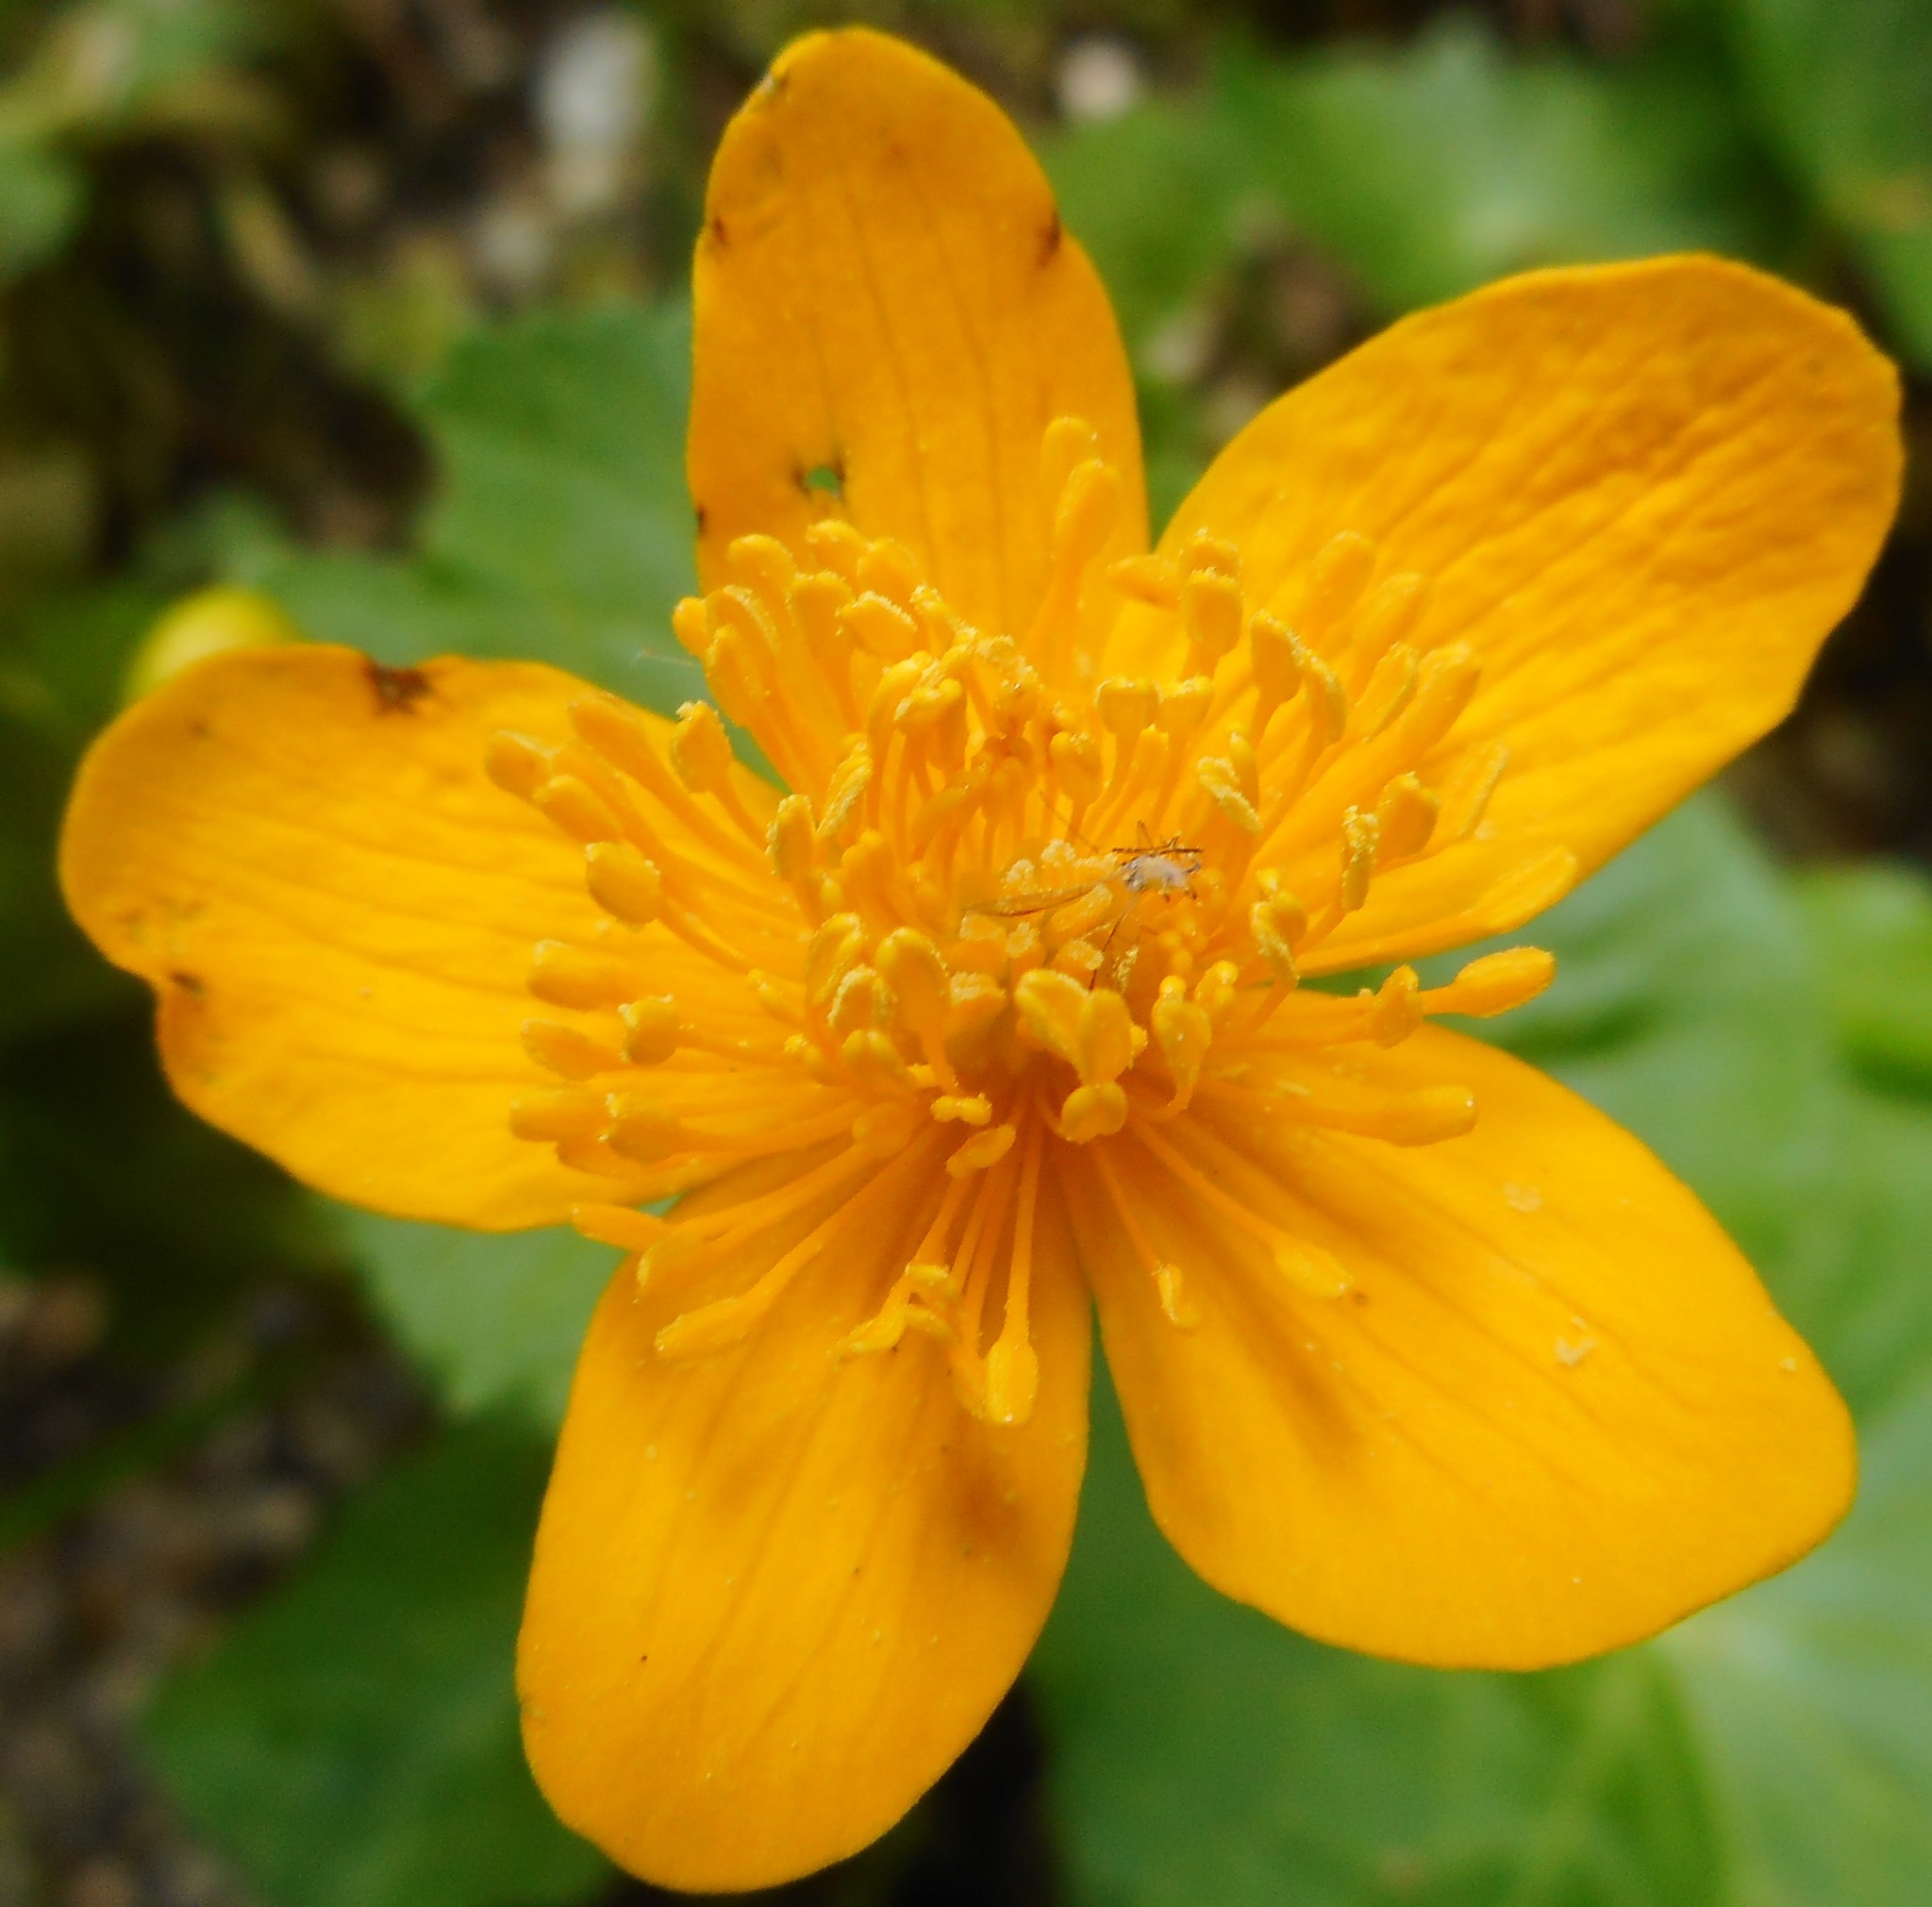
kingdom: Plantae
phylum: Tracheophyta
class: Magnoliopsida
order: Ranunculales
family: Ranunculaceae
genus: Caltha
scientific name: Caltha palustris
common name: Marsh marigold
